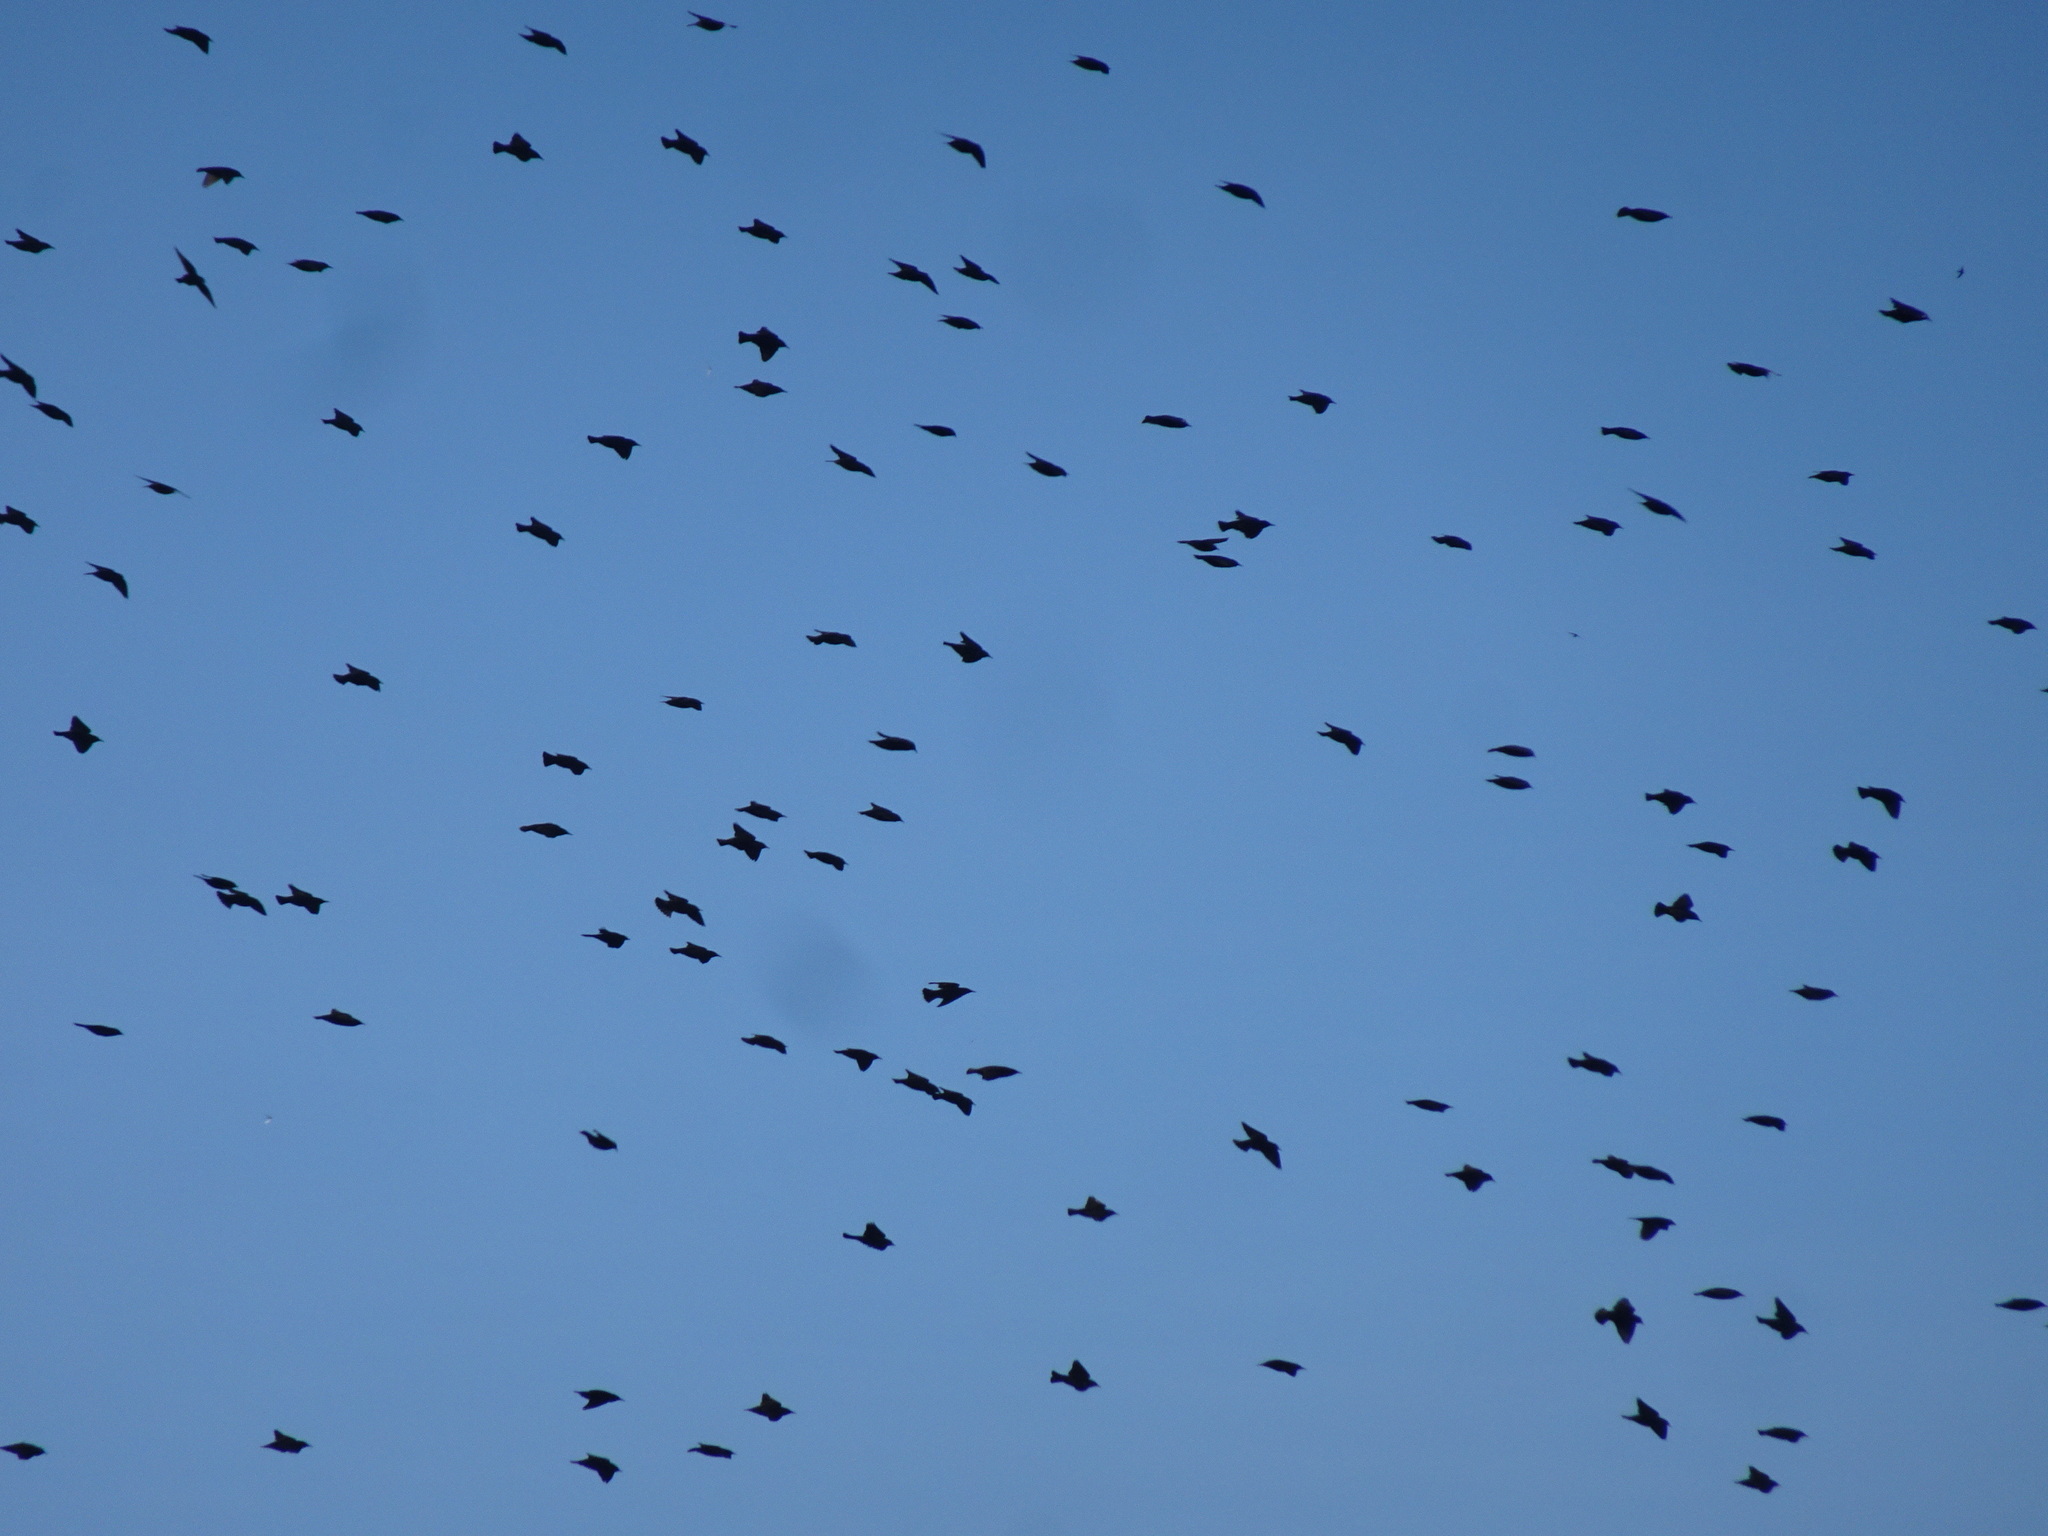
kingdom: Animalia
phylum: Chordata
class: Aves
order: Passeriformes
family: Sturnidae
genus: Sturnus
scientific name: Sturnus vulgaris
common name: Common starling
